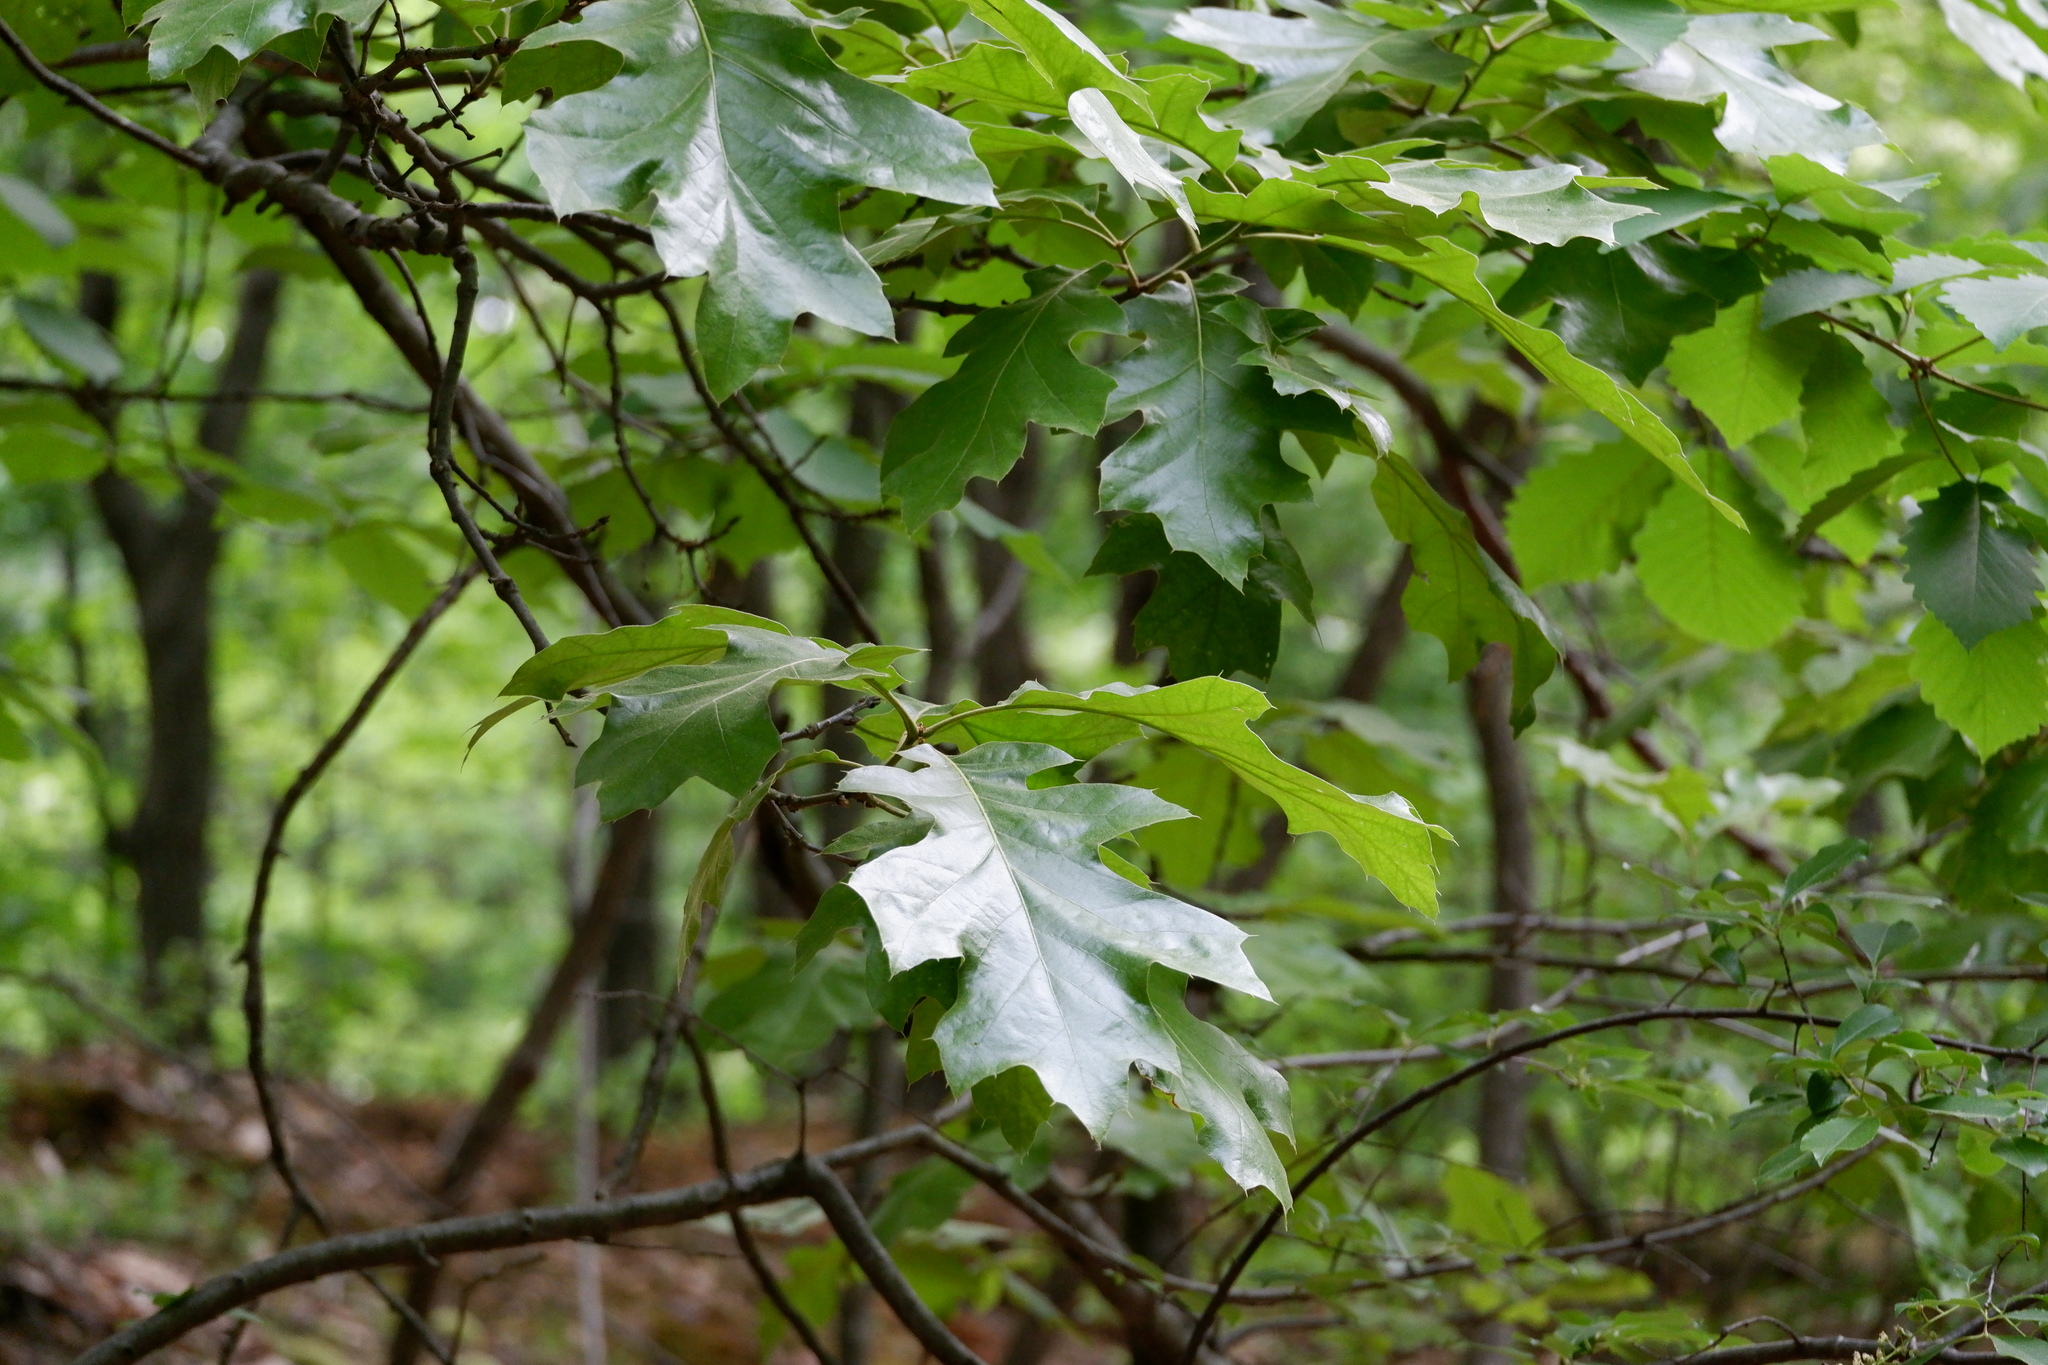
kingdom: Plantae
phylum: Tracheophyta
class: Magnoliopsida
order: Fagales
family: Fagaceae
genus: Quercus
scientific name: Quercus velutina
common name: Black oak
